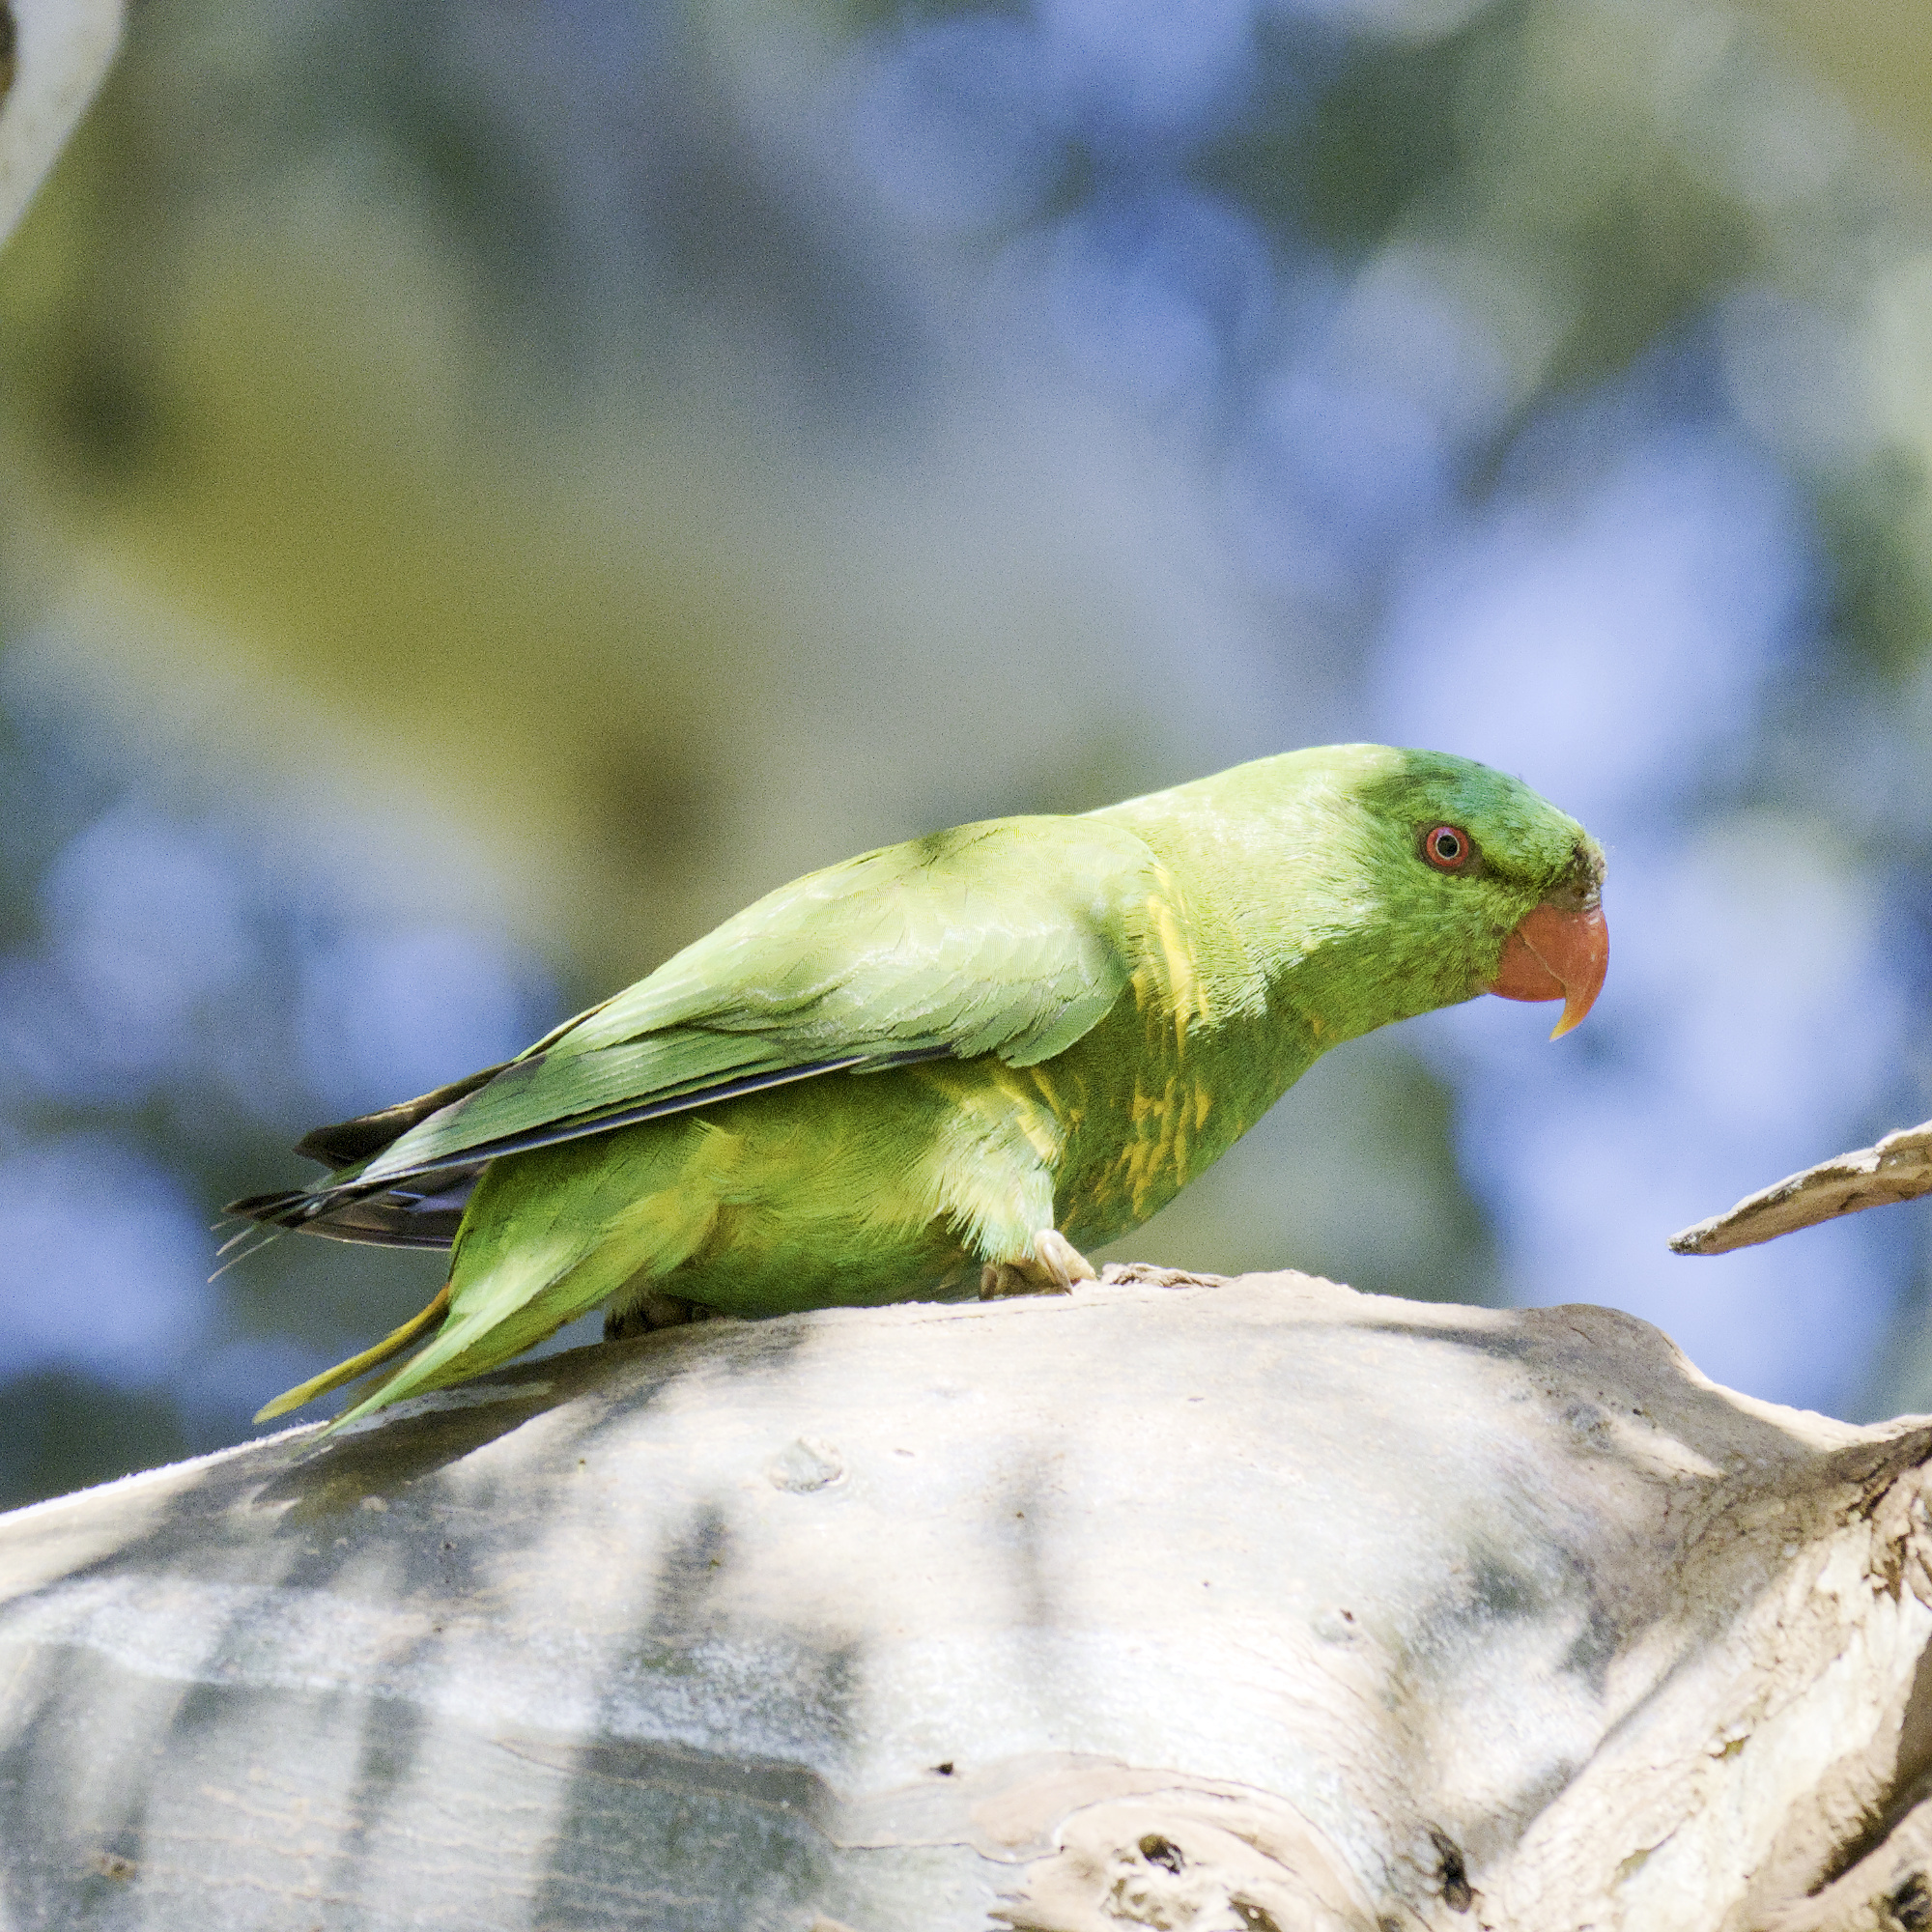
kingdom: Animalia
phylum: Chordata
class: Aves
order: Psittaciformes
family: Psittacidae
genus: Trichoglossus
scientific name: Trichoglossus chlorolepidotus
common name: Scaly-breasted lorikeet
